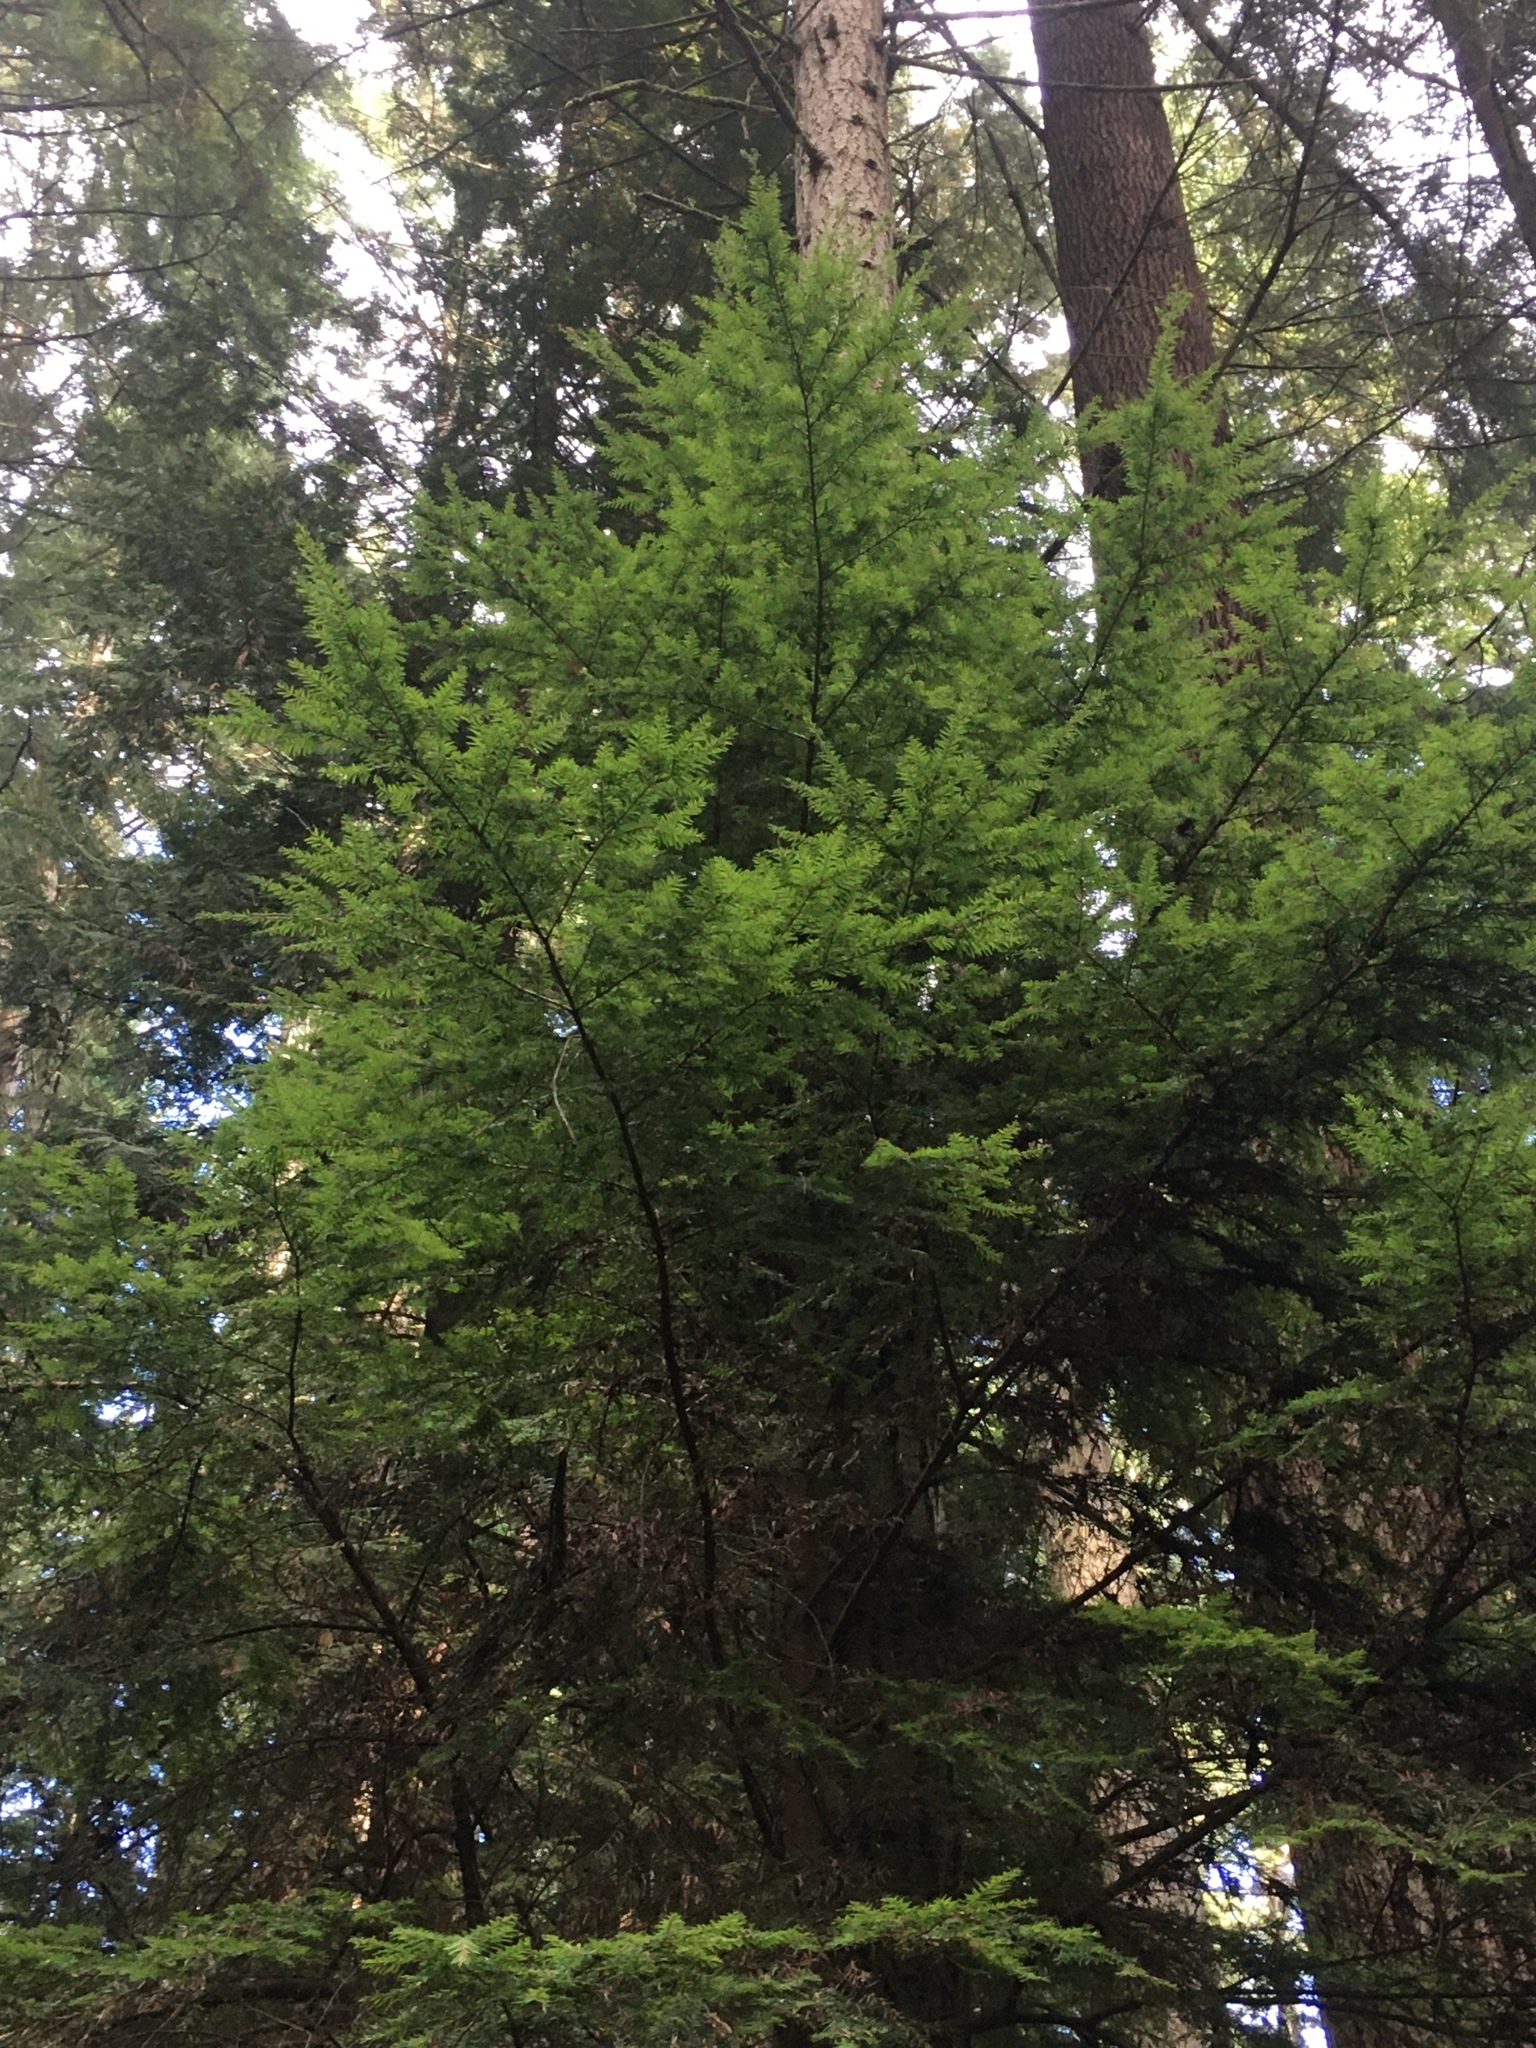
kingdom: Plantae
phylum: Tracheophyta
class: Pinopsida
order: Pinales
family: Pinaceae
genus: Tsuga
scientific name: Tsuga heterophylla
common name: Western hemlock
